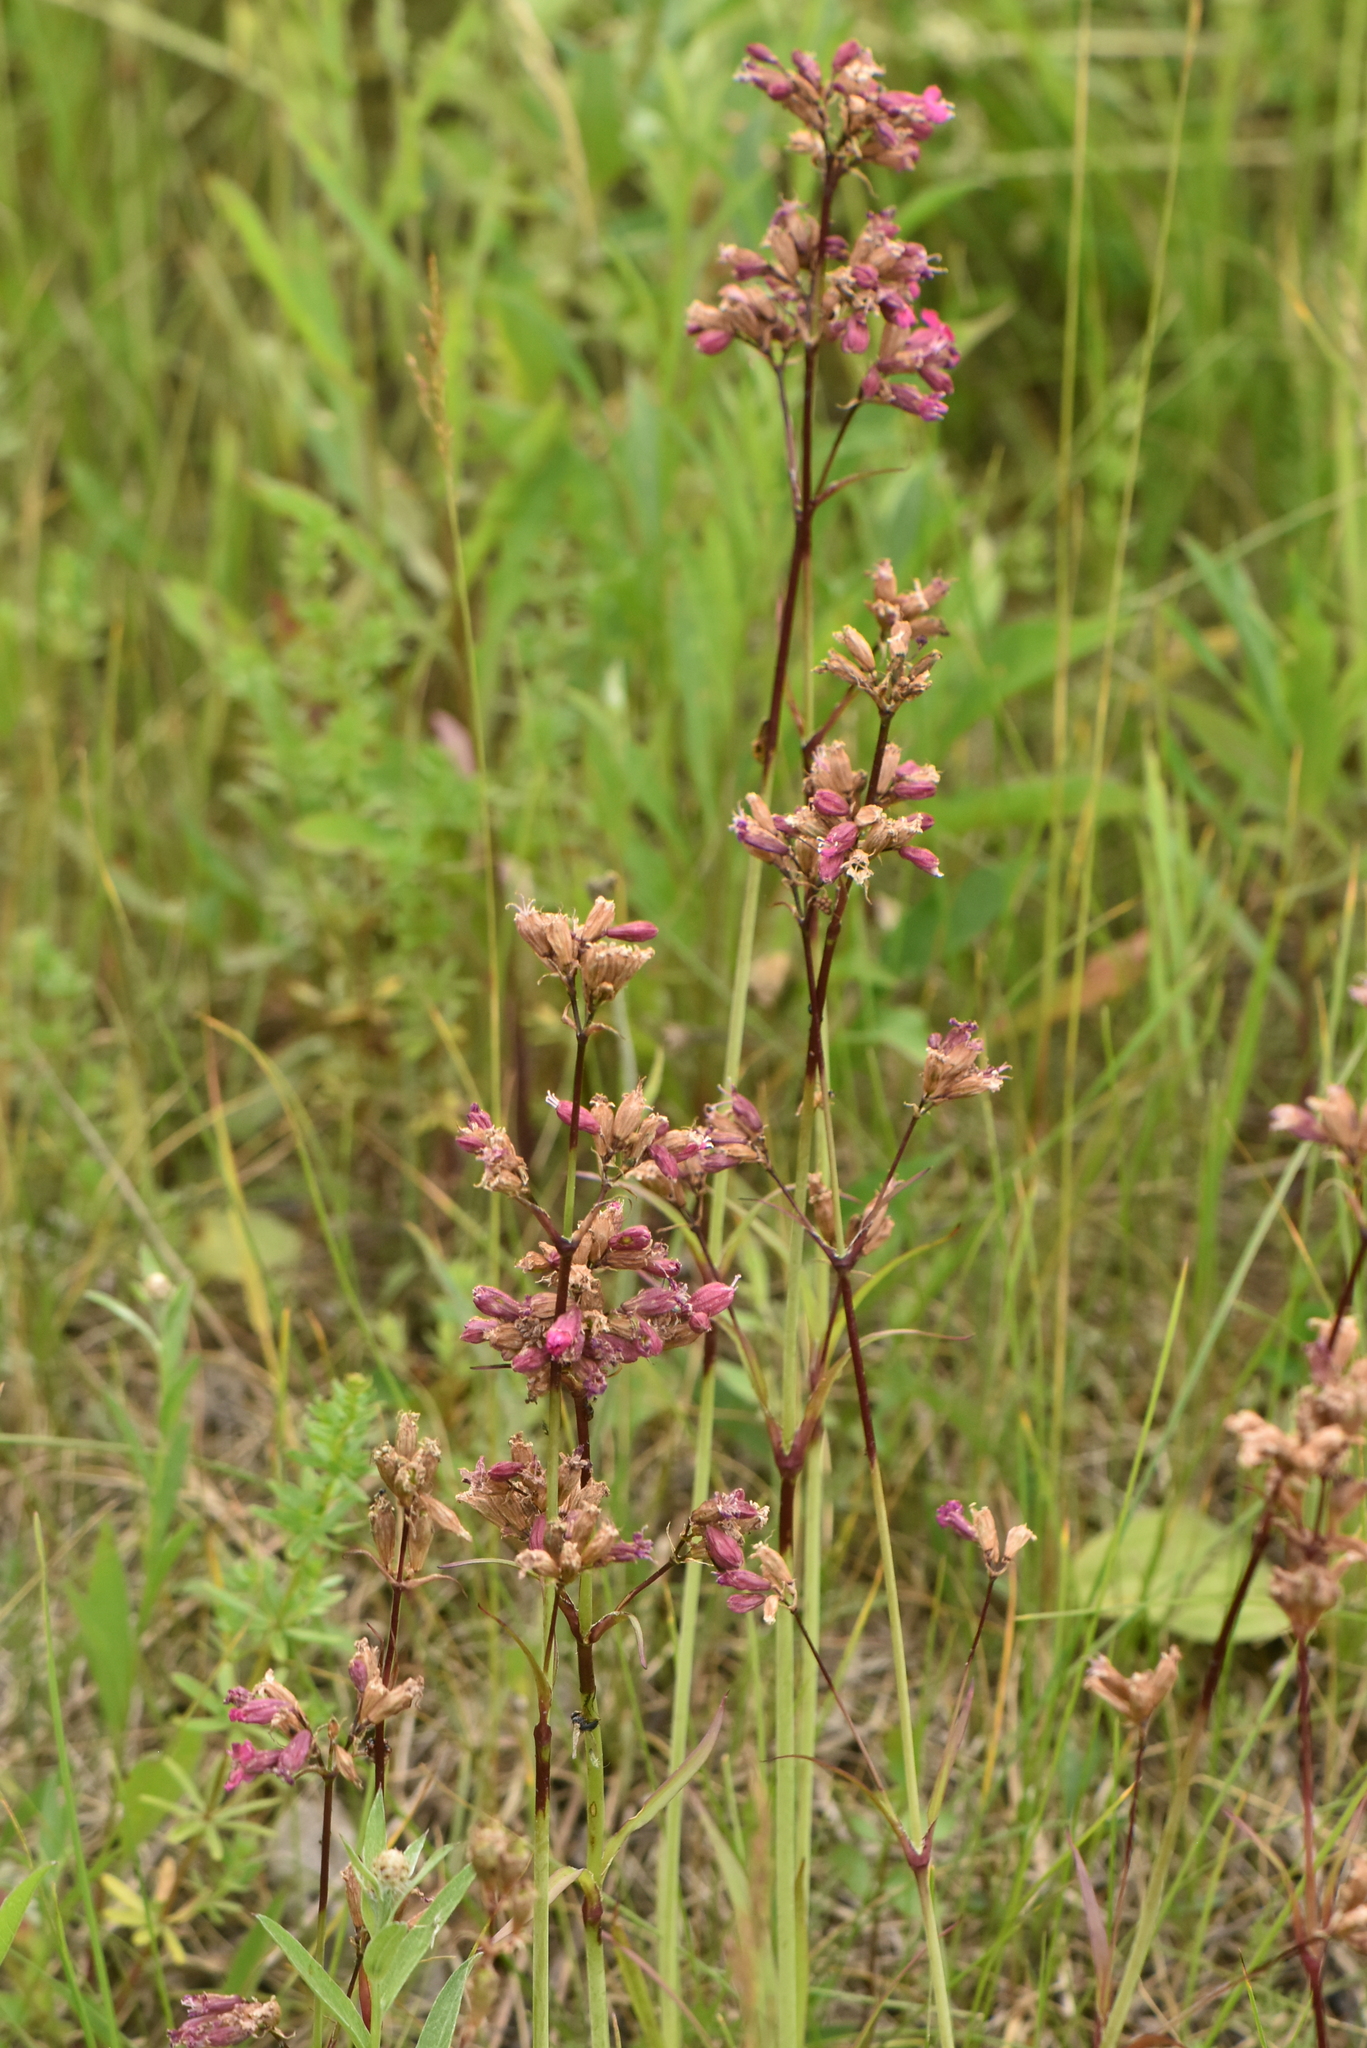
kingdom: Plantae
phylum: Tracheophyta
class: Magnoliopsida
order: Caryophyllales
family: Caryophyllaceae
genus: Viscaria
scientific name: Viscaria vulgaris
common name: Clammy campion
